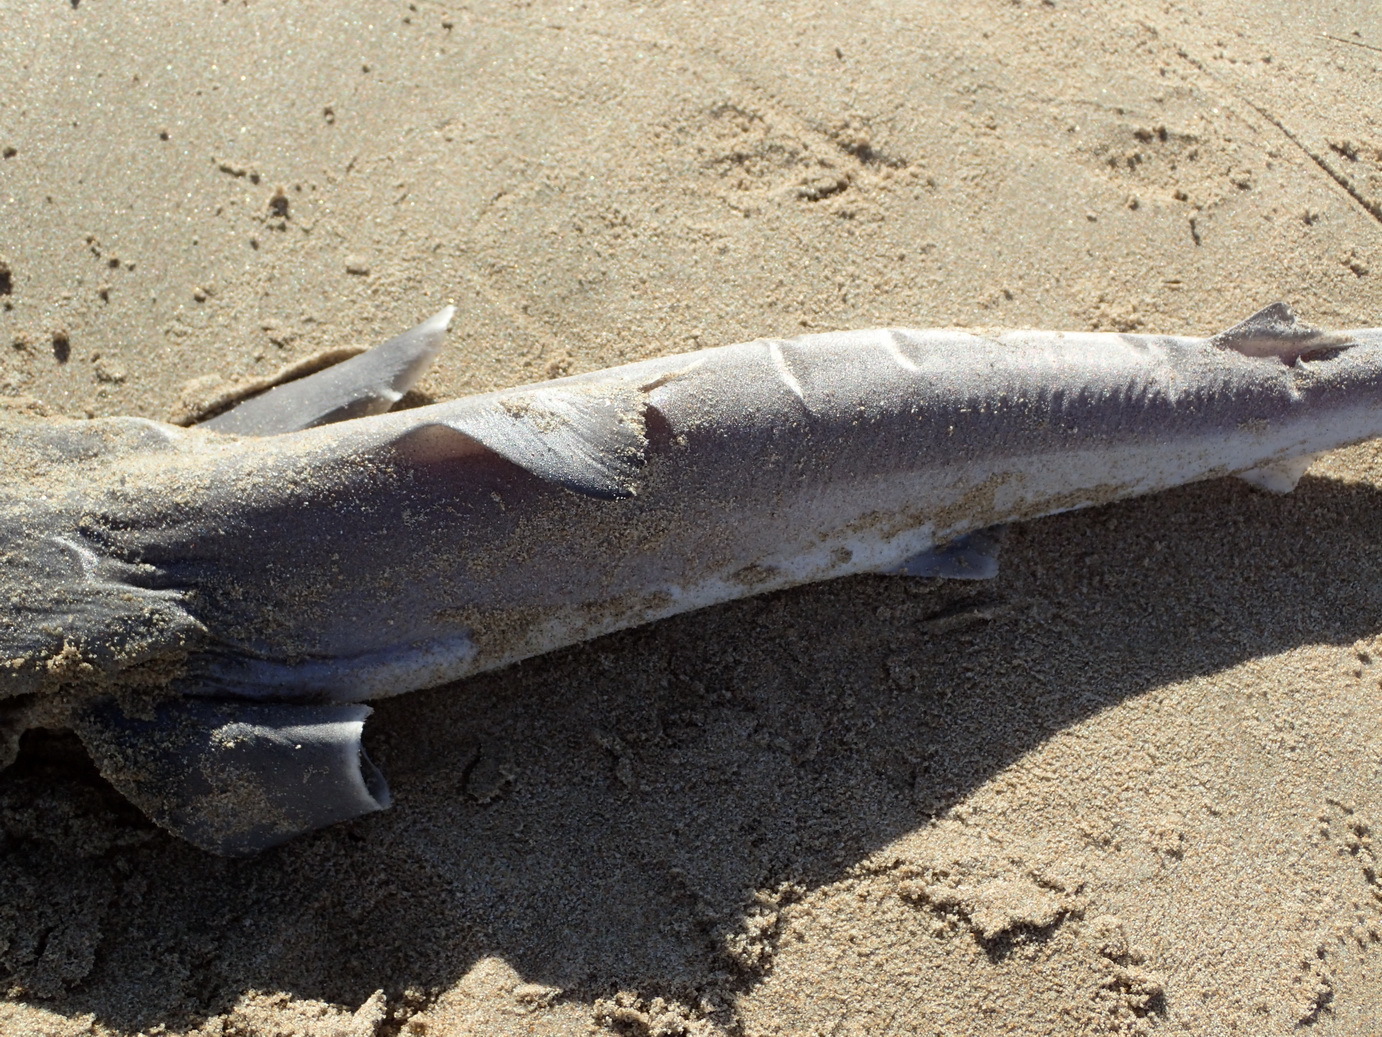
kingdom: Animalia
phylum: Chordata
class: Elasmobranchii
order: Carcharhiniformes
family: Triakidae
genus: Galeorhinus
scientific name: Galeorhinus galeus
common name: Tope
